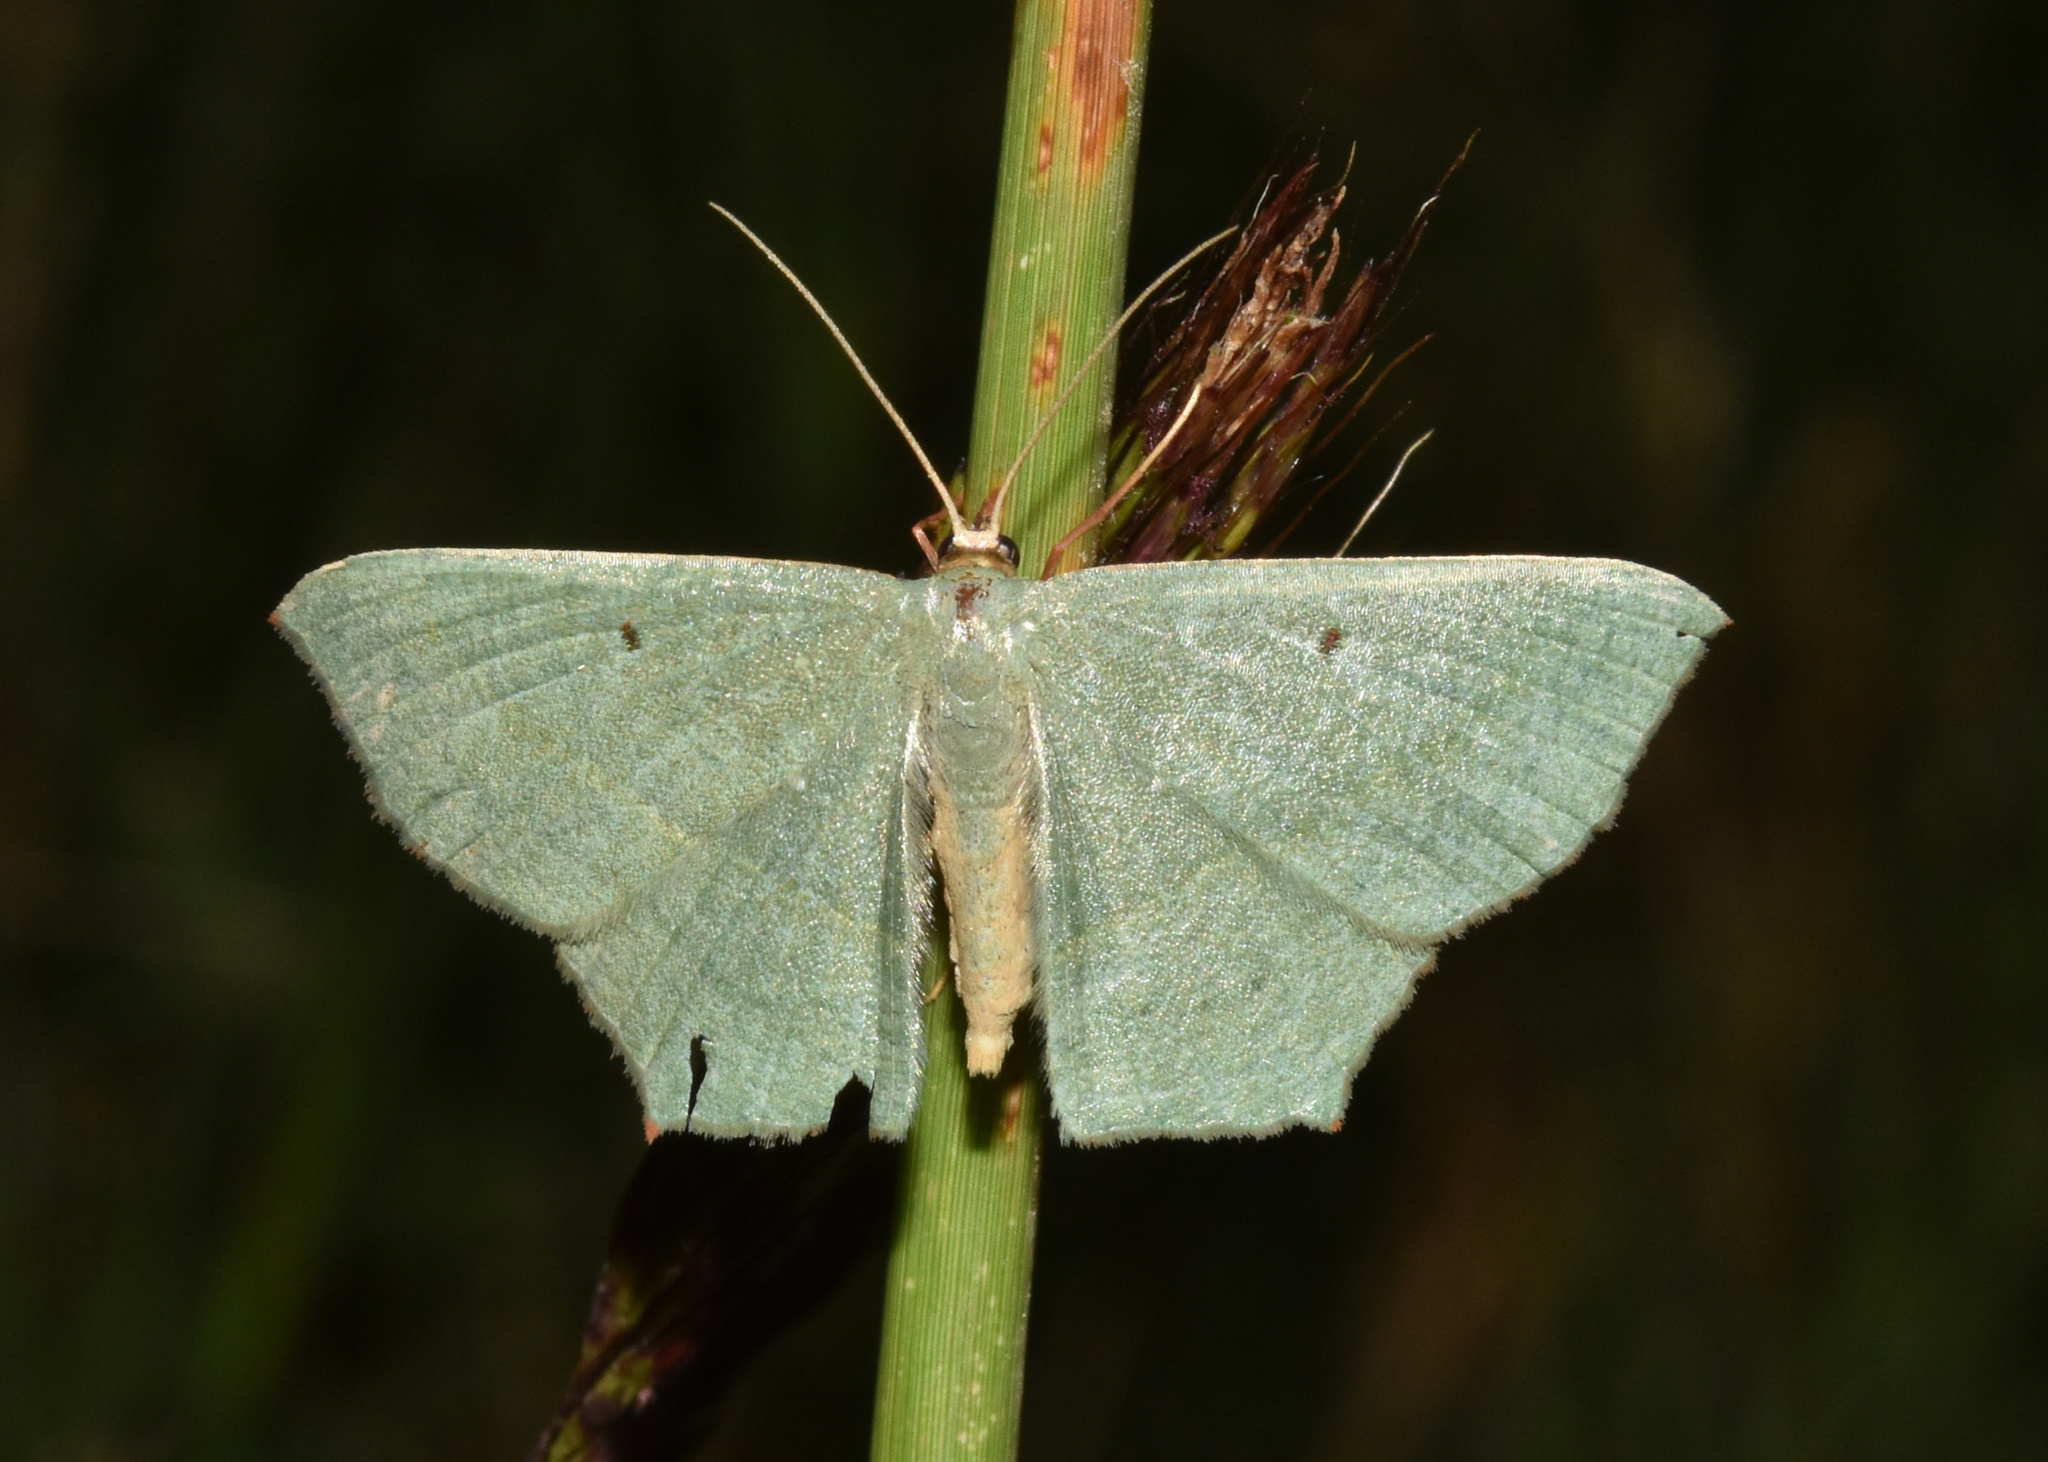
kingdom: Animalia
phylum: Arthropoda
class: Insecta
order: Lepidoptera
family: Geometridae
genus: Traminda
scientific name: Traminda neptunaria
